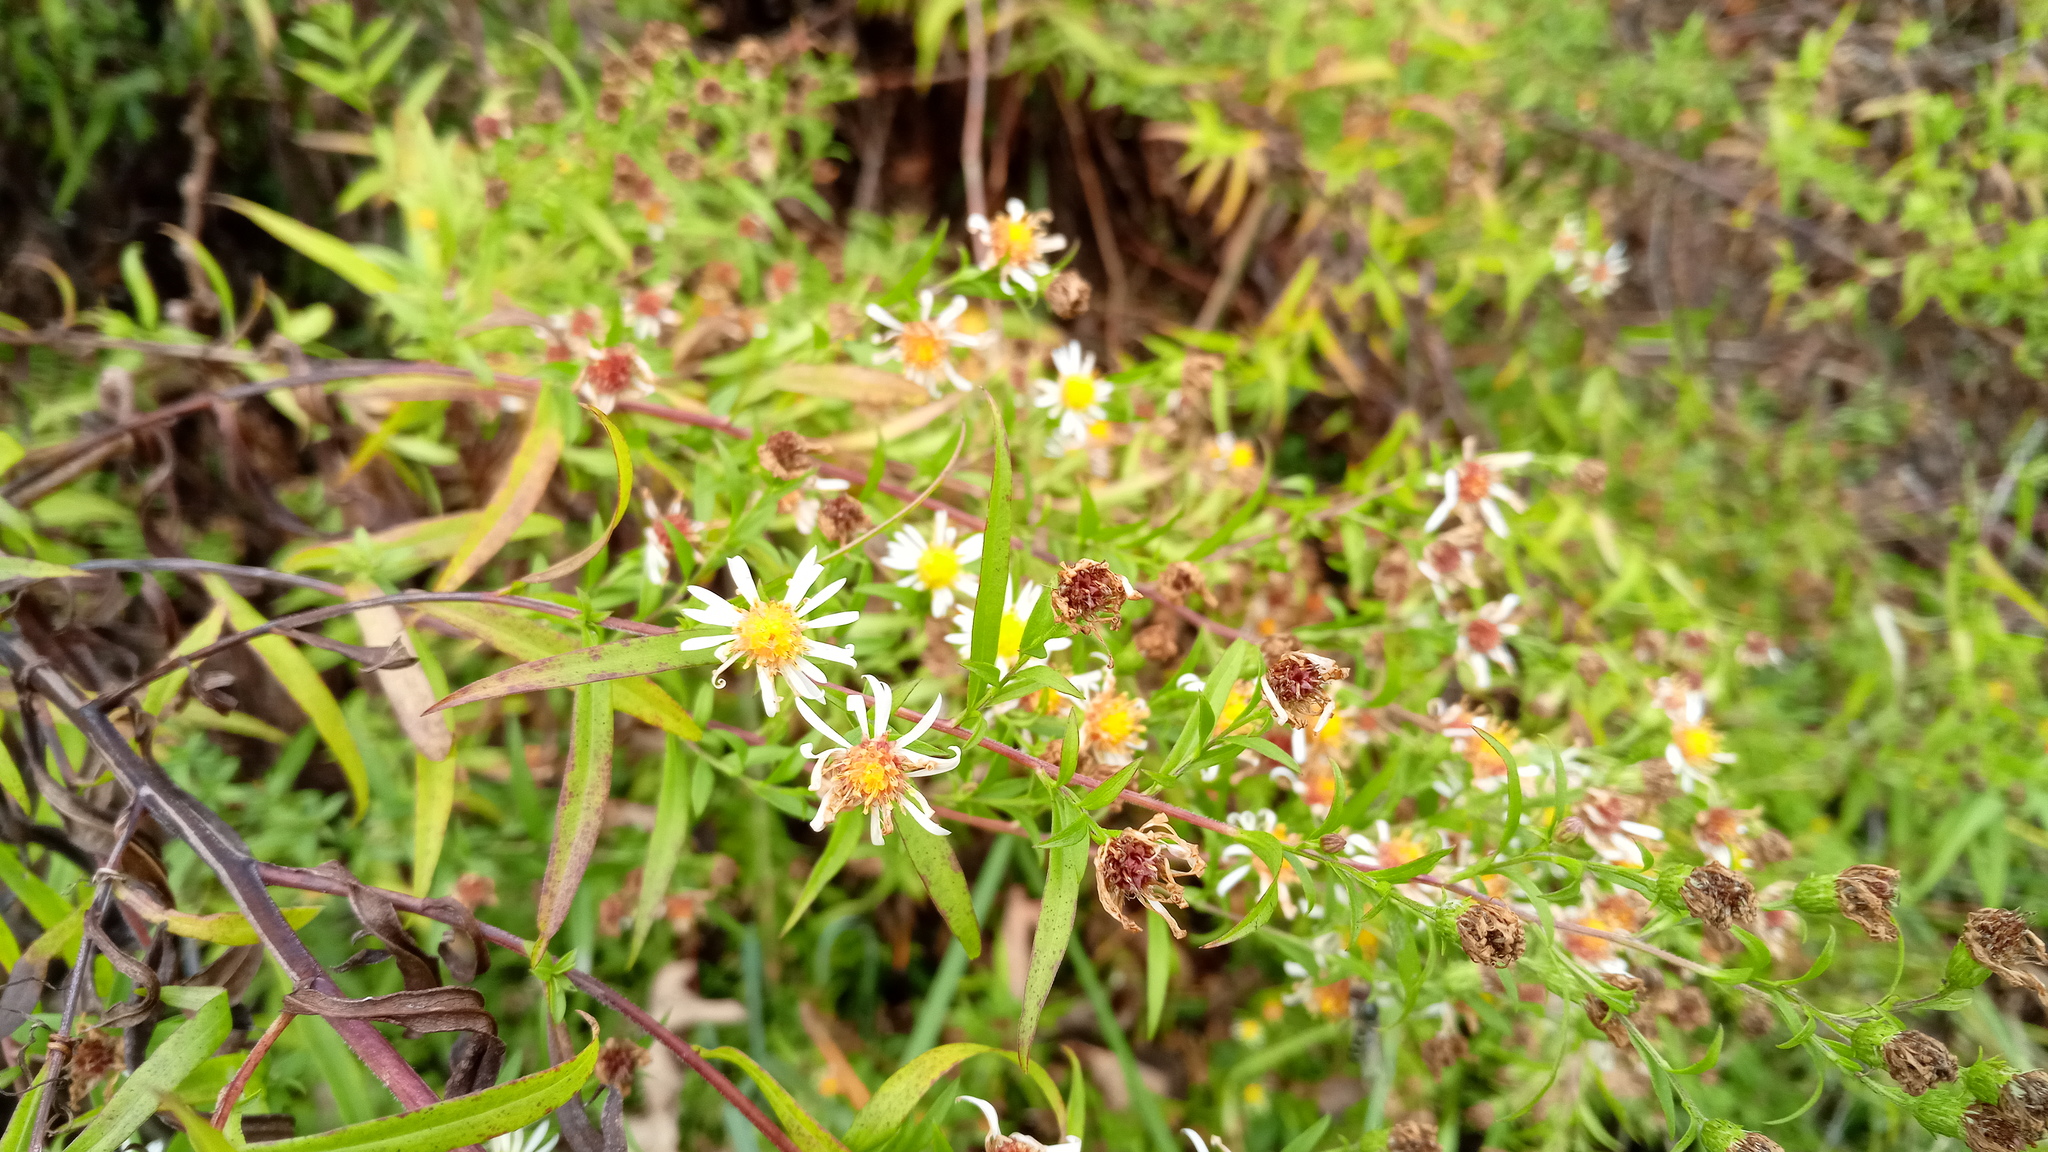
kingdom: Plantae
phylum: Tracheophyta
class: Magnoliopsida
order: Asterales
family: Asteraceae
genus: Symphyotrichum
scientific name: Symphyotrichum lanceolatum
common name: Panicled aster
